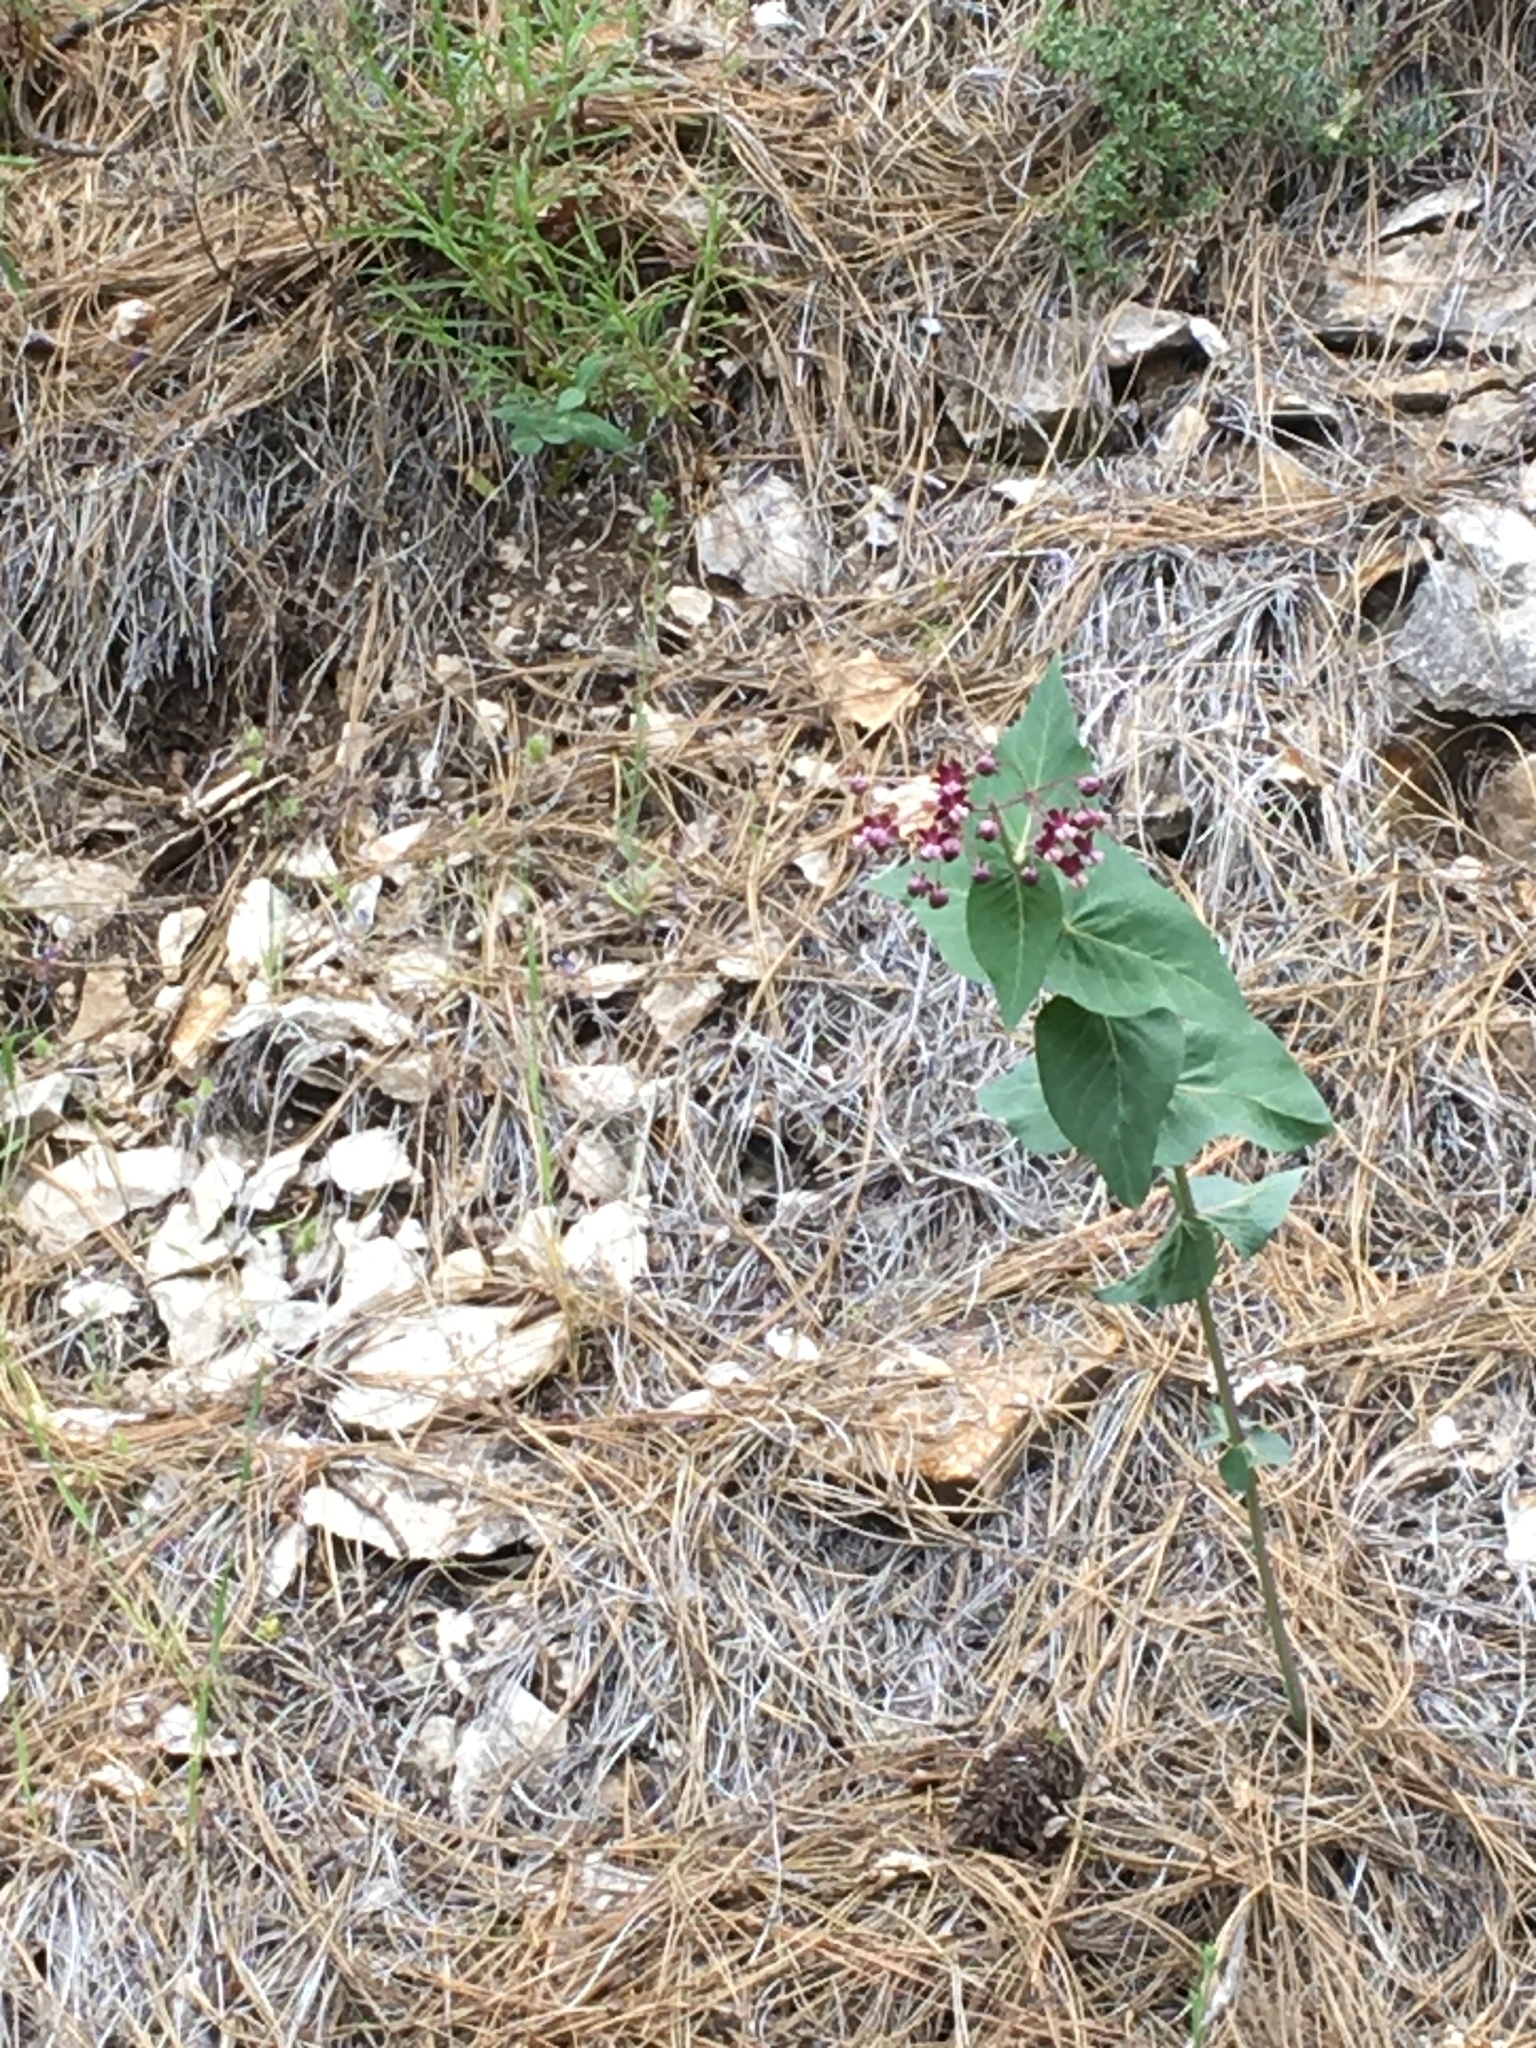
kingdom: Plantae
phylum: Tracheophyta
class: Magnoliopsida
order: Gentianales
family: Apocynaceae
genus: Asclepias
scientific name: Asclepias cordifolia
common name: Purple milkweed
